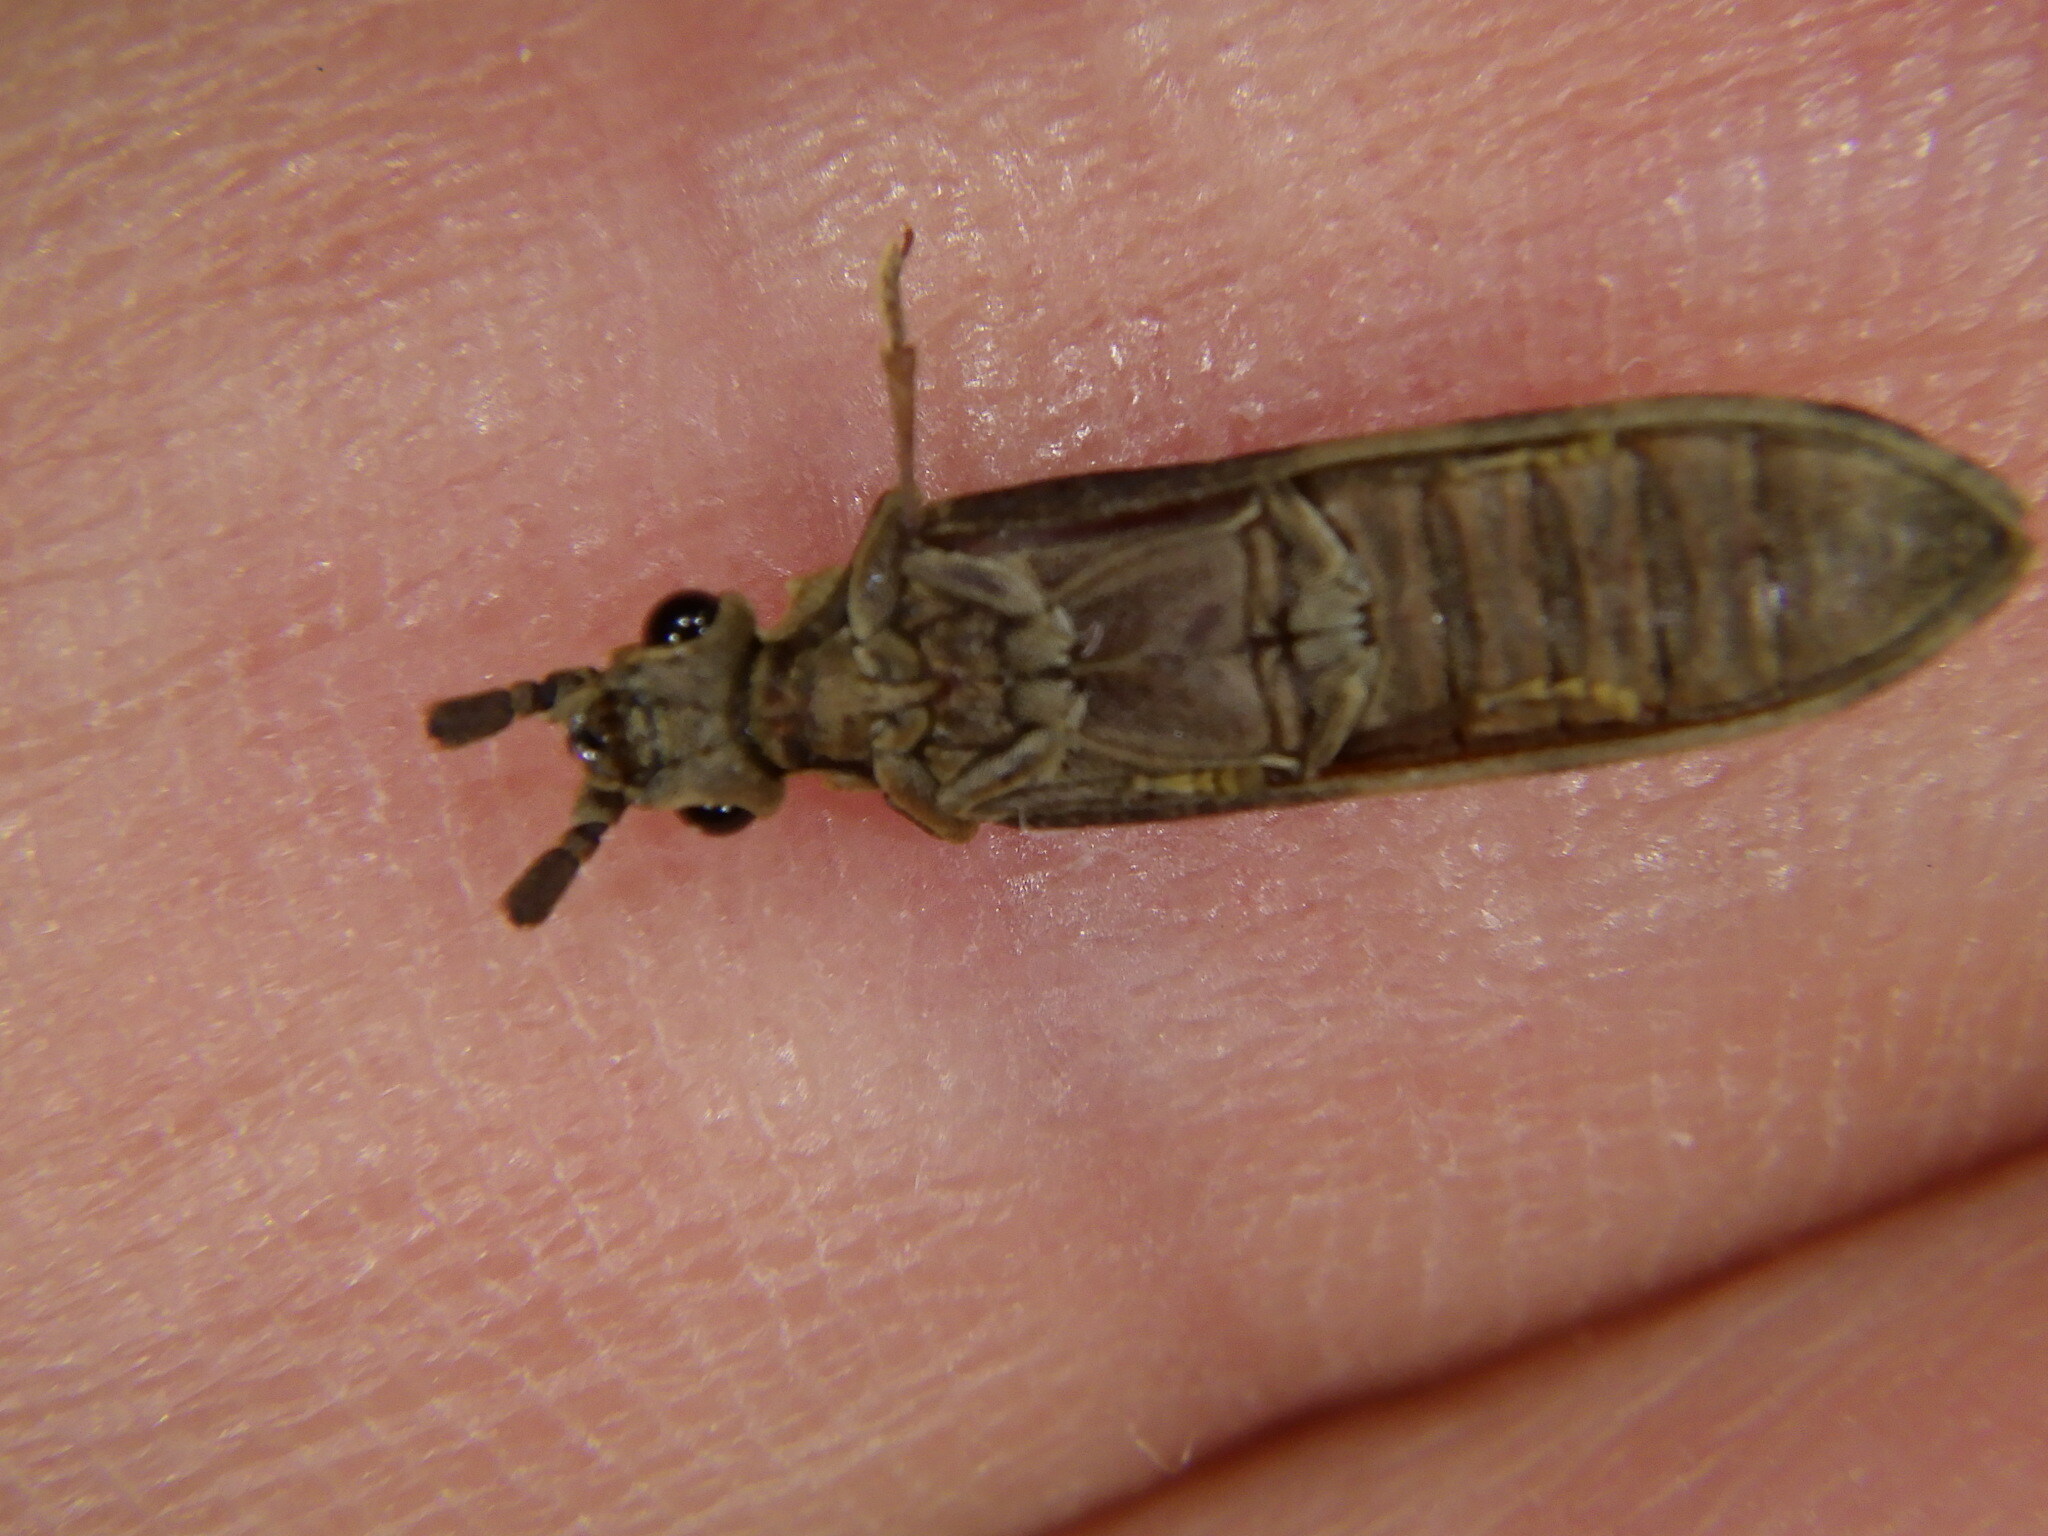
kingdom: Animalia
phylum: Arthropoda
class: Insecta
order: Coleoptera
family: Cupedidae
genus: Tenomerga
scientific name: Tenomerga cinerea
